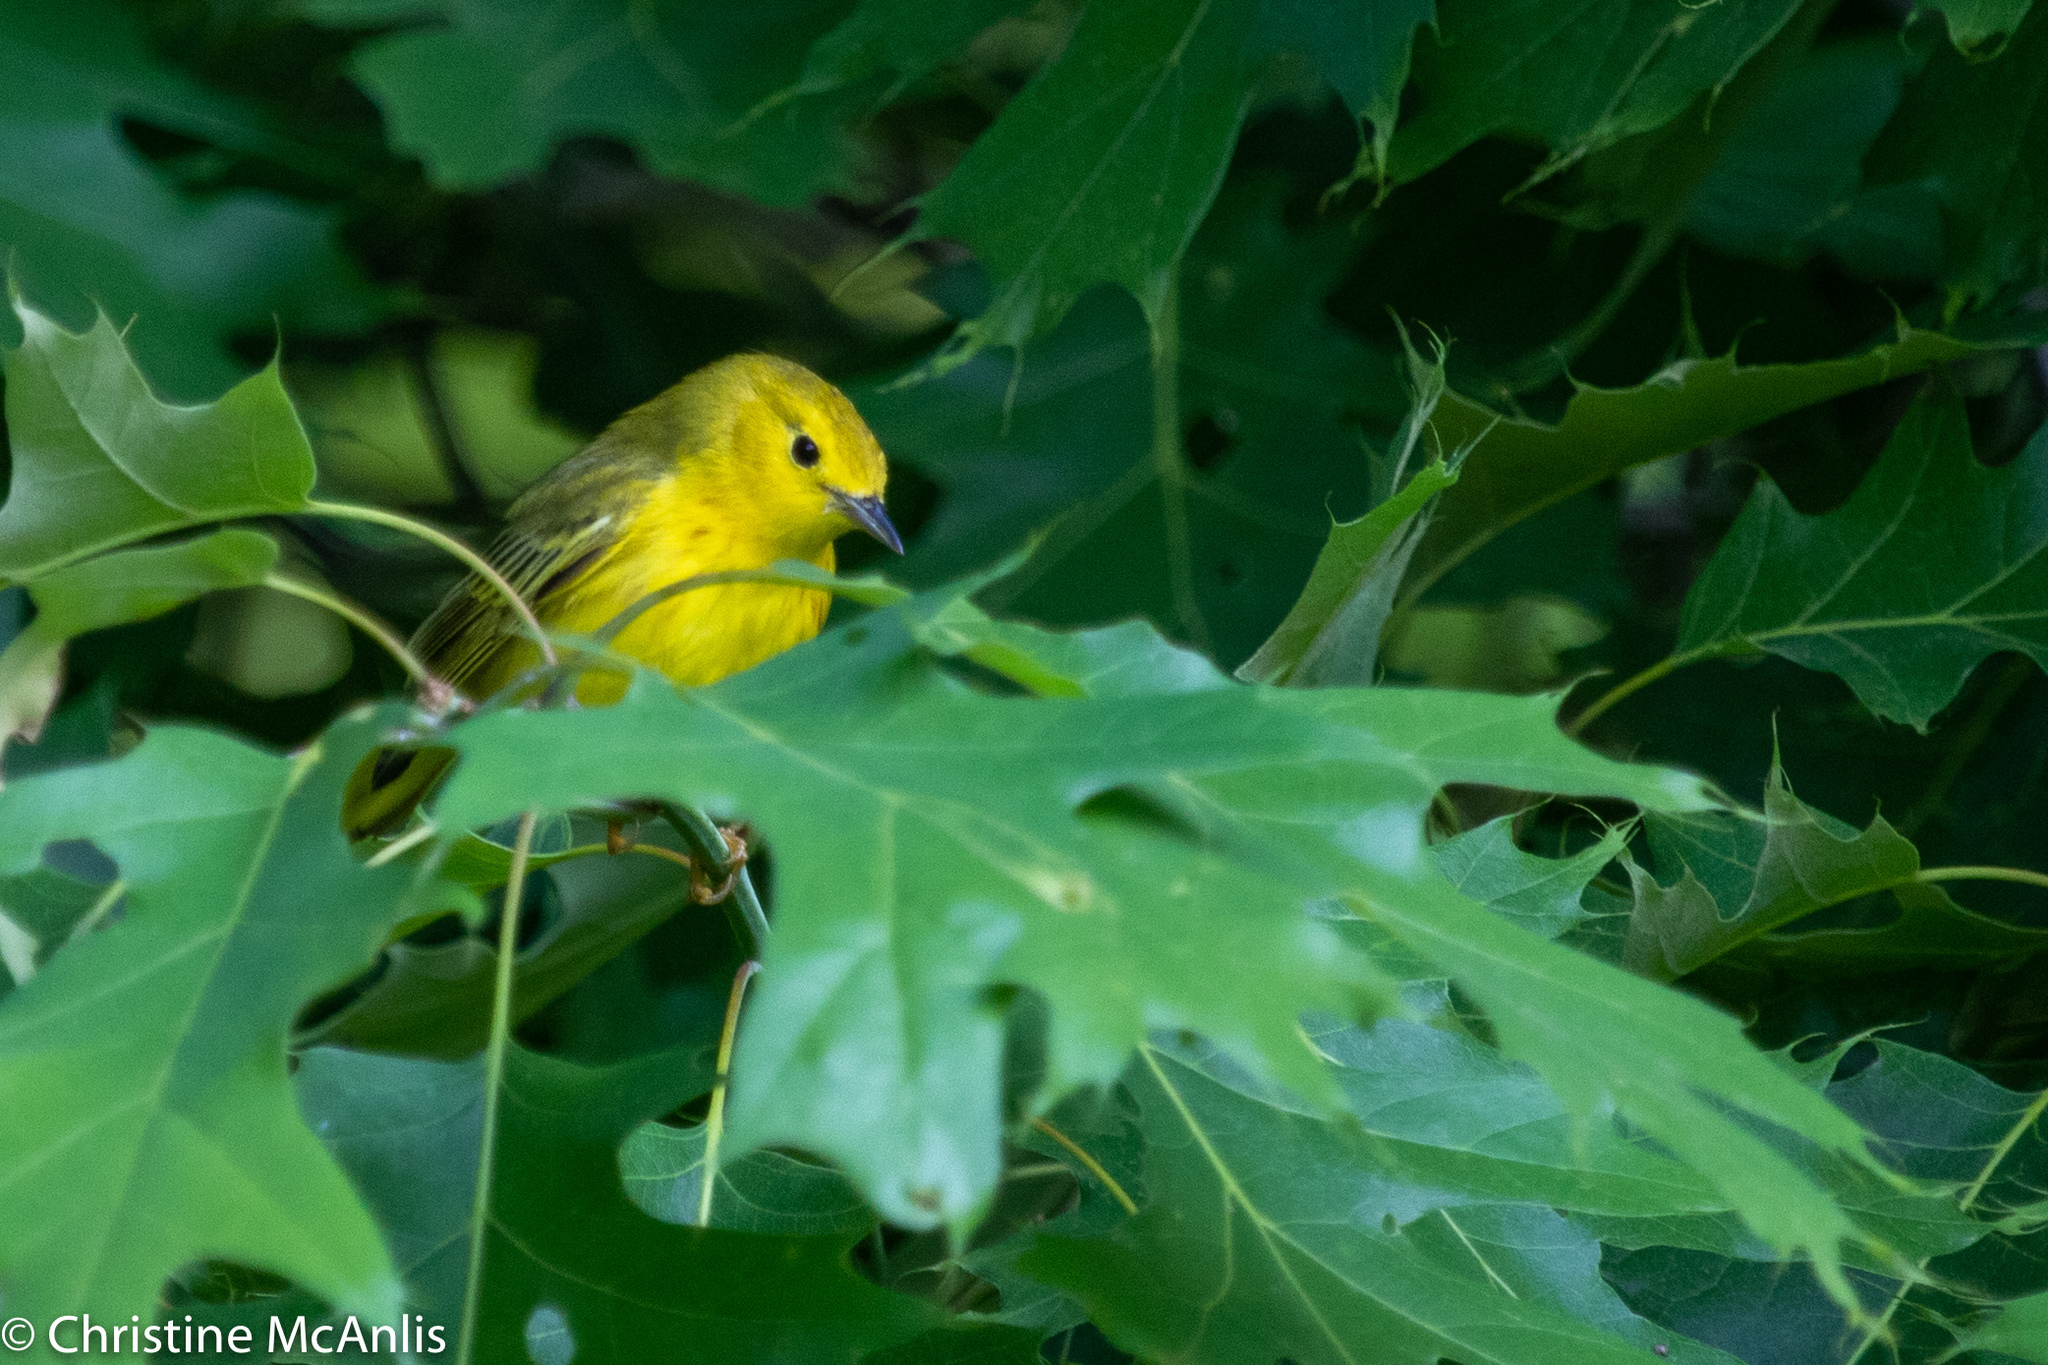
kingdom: Animalia
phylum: Chordata
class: Aves
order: Passeriformes
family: Parulidae
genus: Setophaga
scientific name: Setophaga petechia
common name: Yellow warbler
